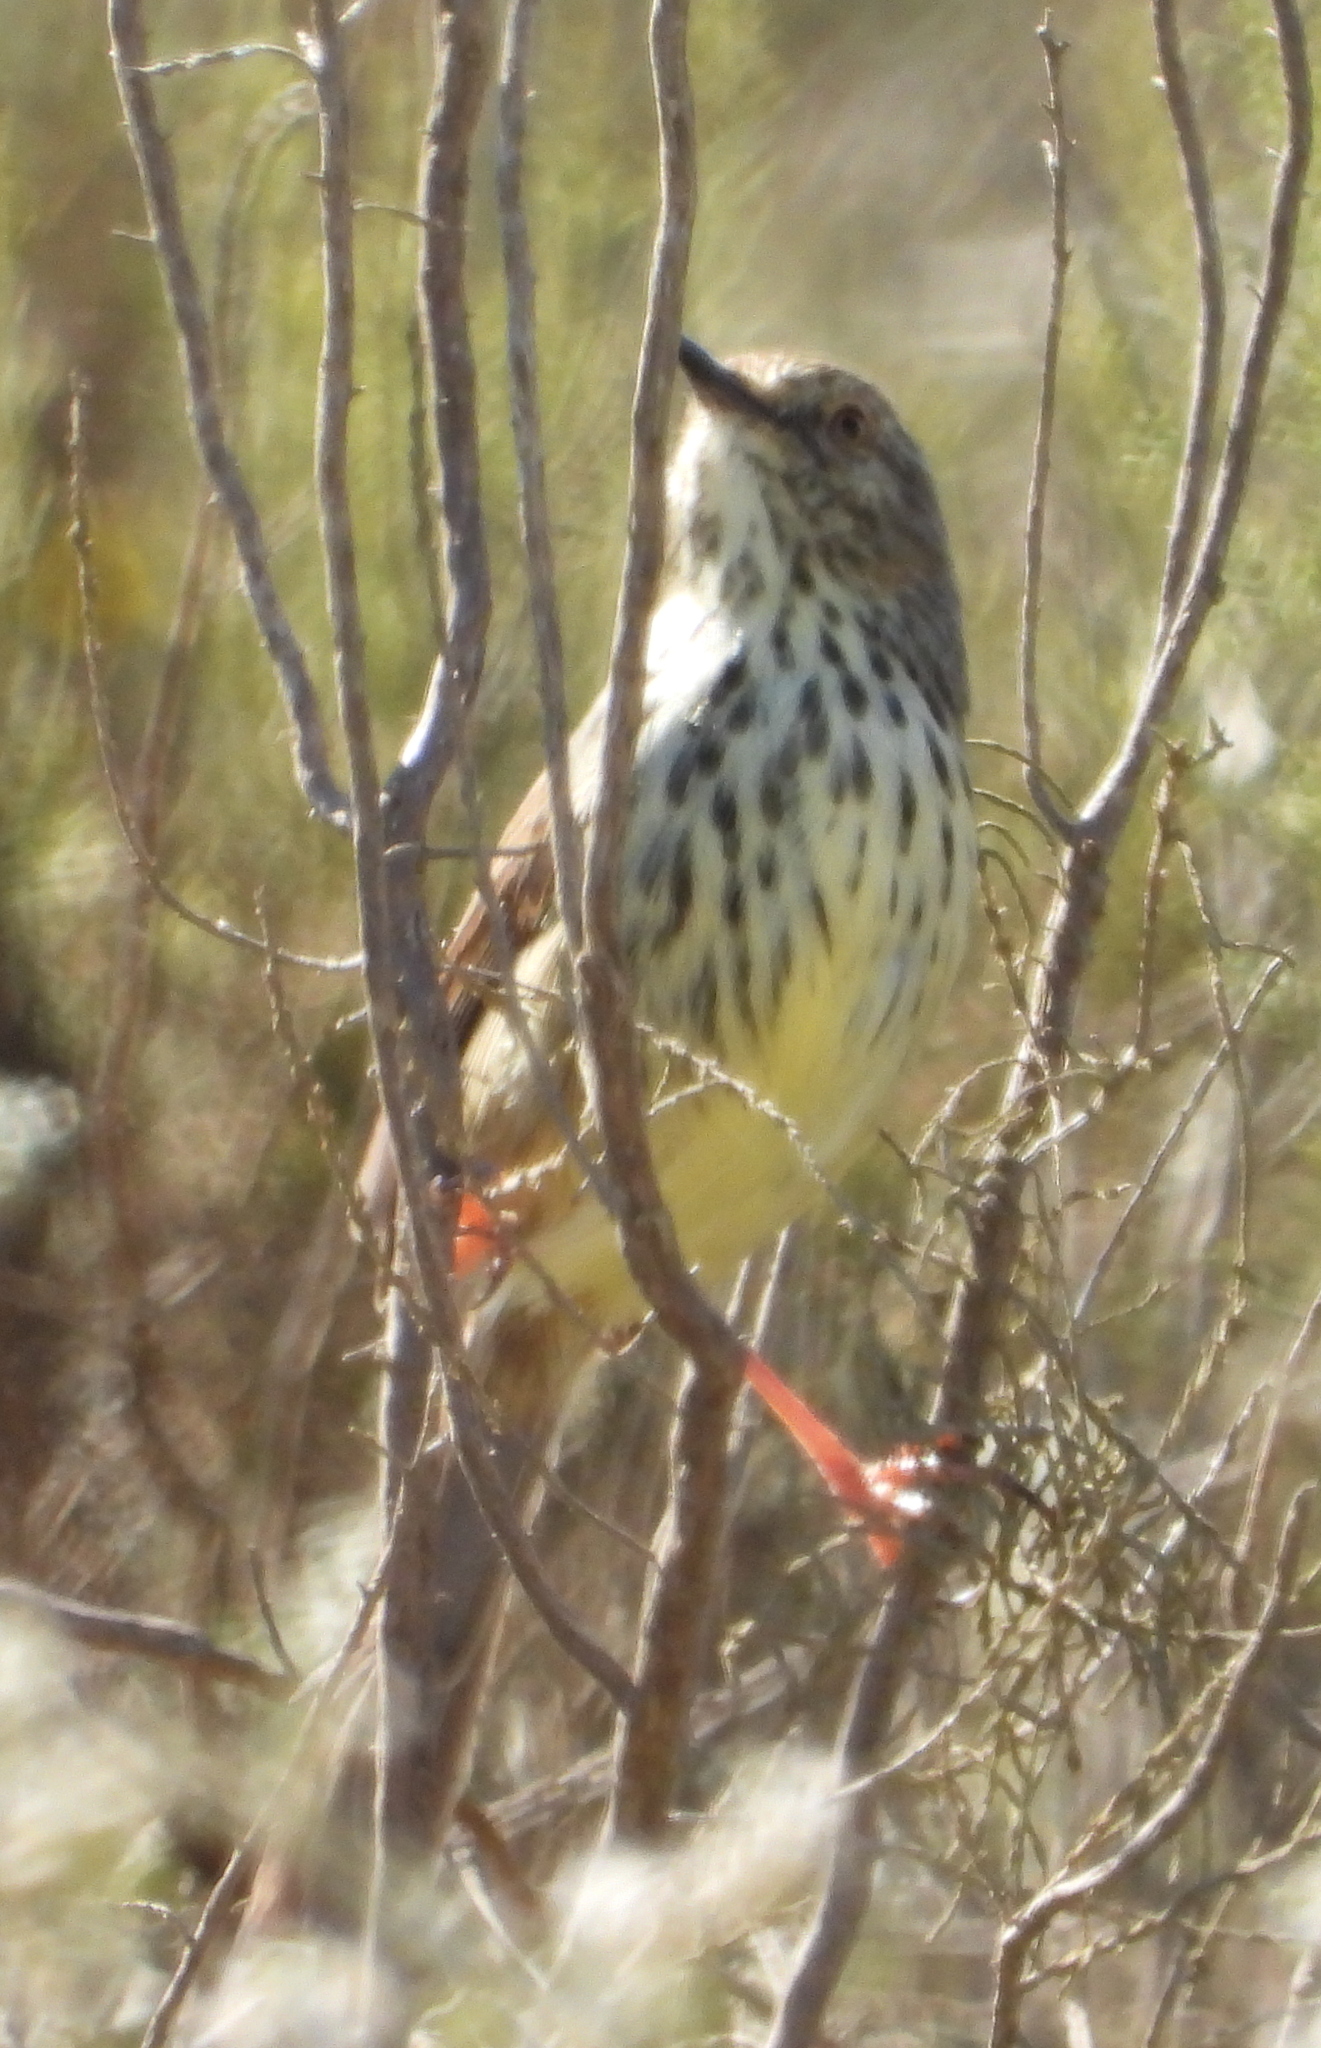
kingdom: Animalia
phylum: Chordata
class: Aves
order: Passeriformes
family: Cisticolidae
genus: Prinia
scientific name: Prinia maculosa
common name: Karoo prinia
